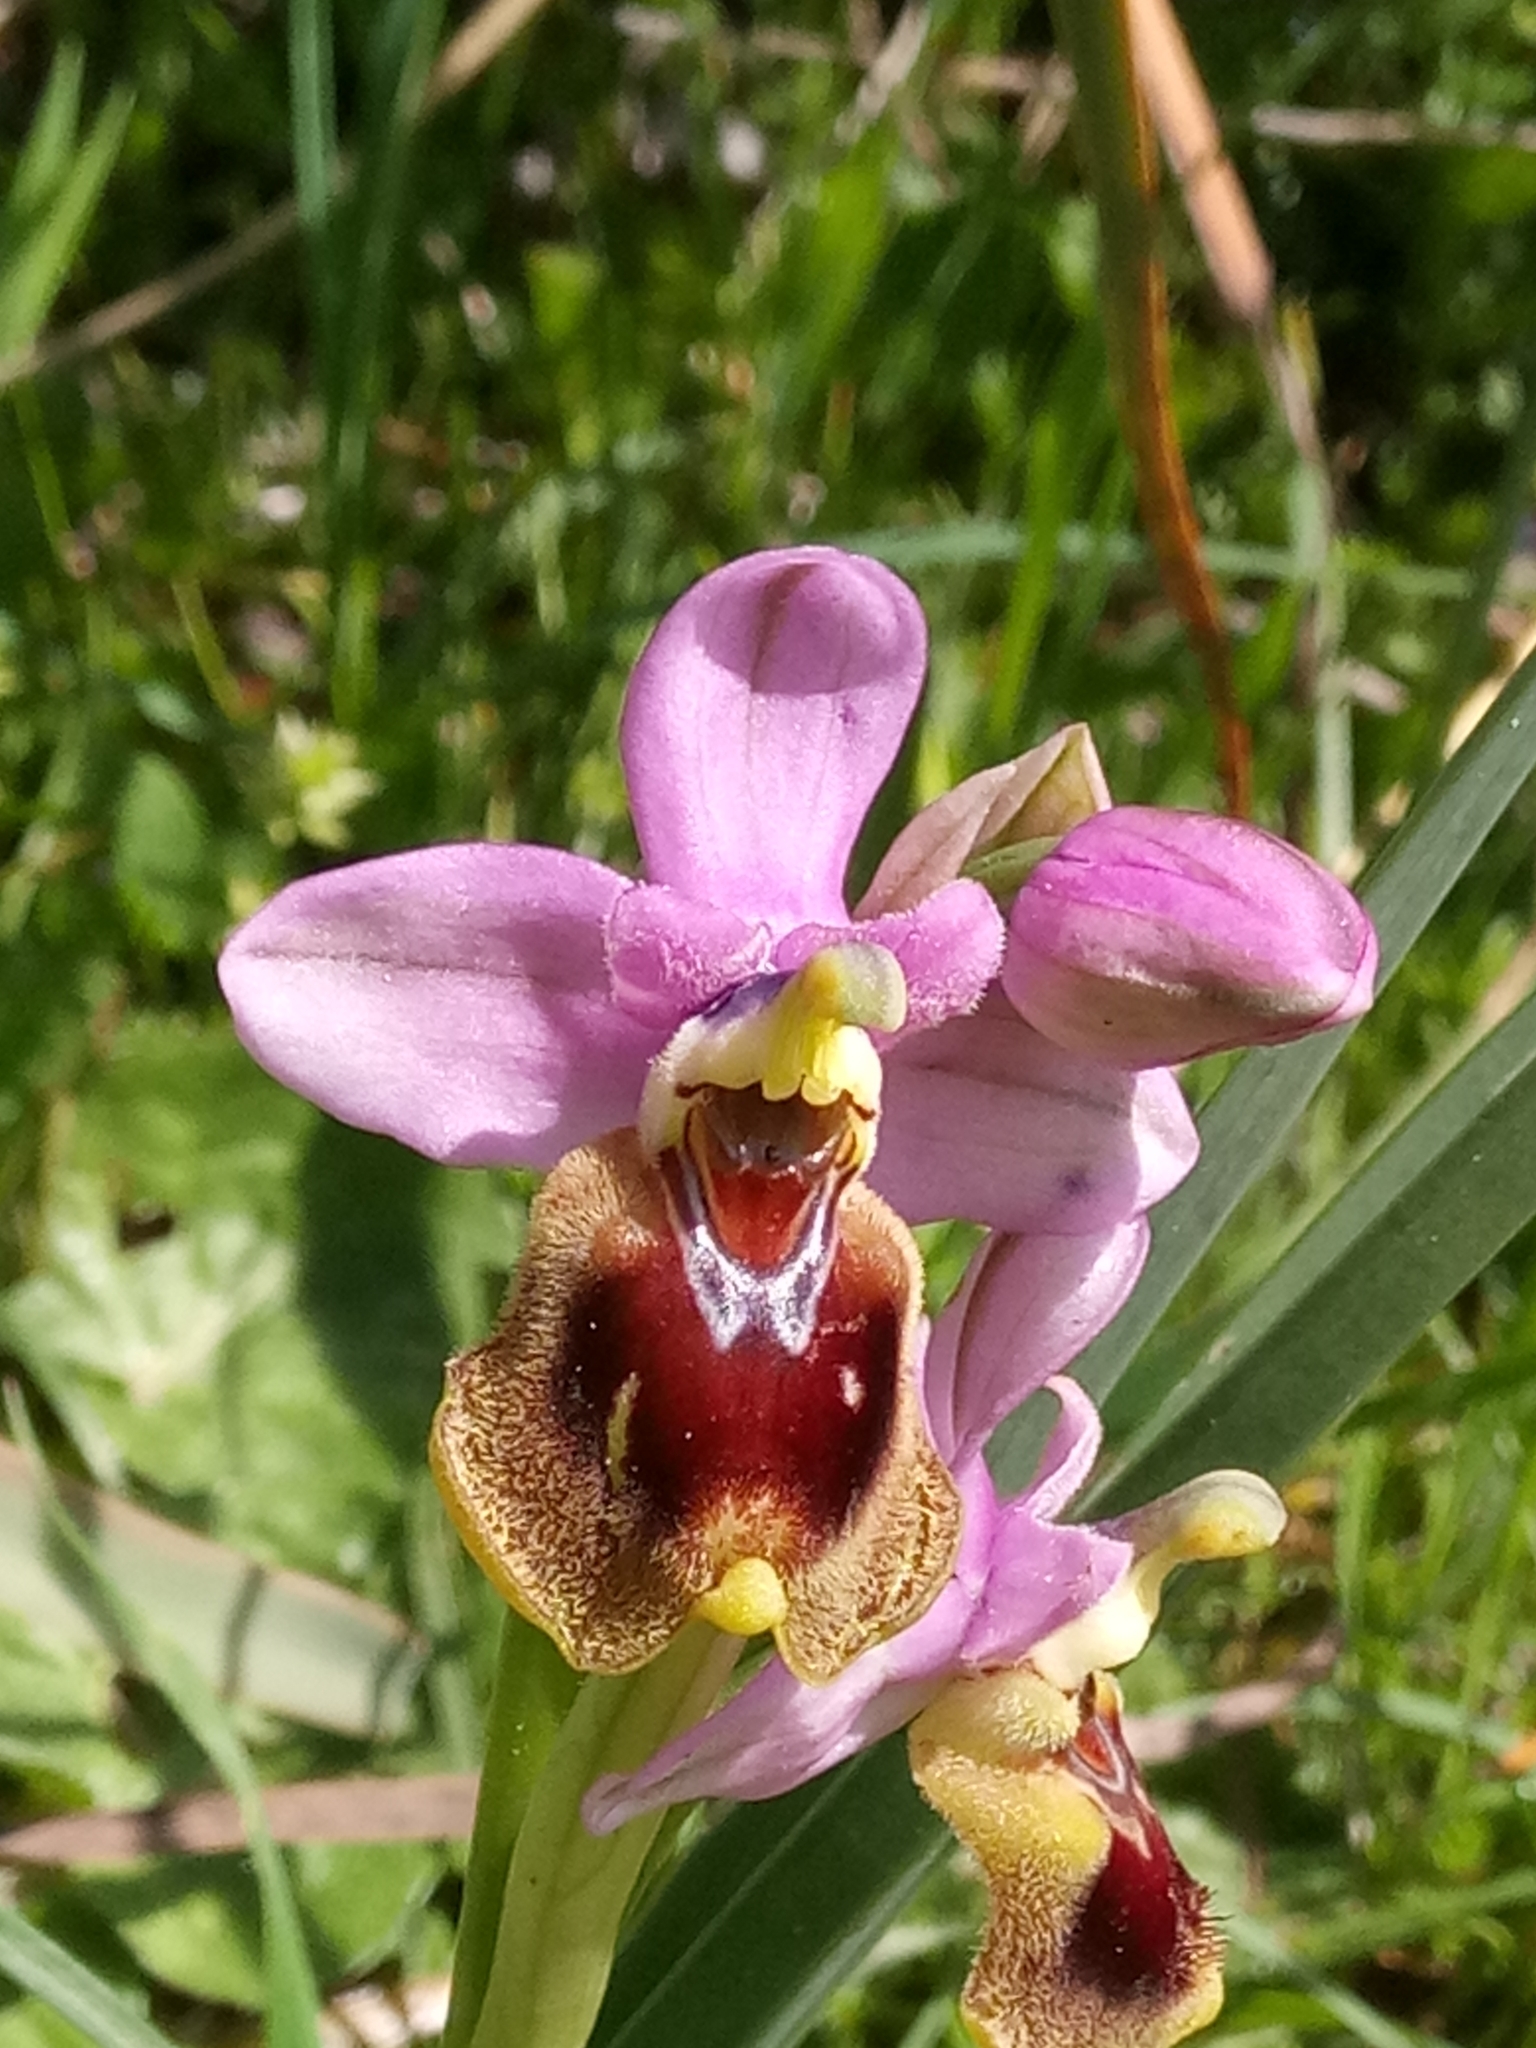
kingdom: Plantae
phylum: Tracheophyta
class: Liliopsida
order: Asparagales
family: Orchidaceae
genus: Ophrys
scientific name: Ophrys tenthredinifera
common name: Sawfly orchid
